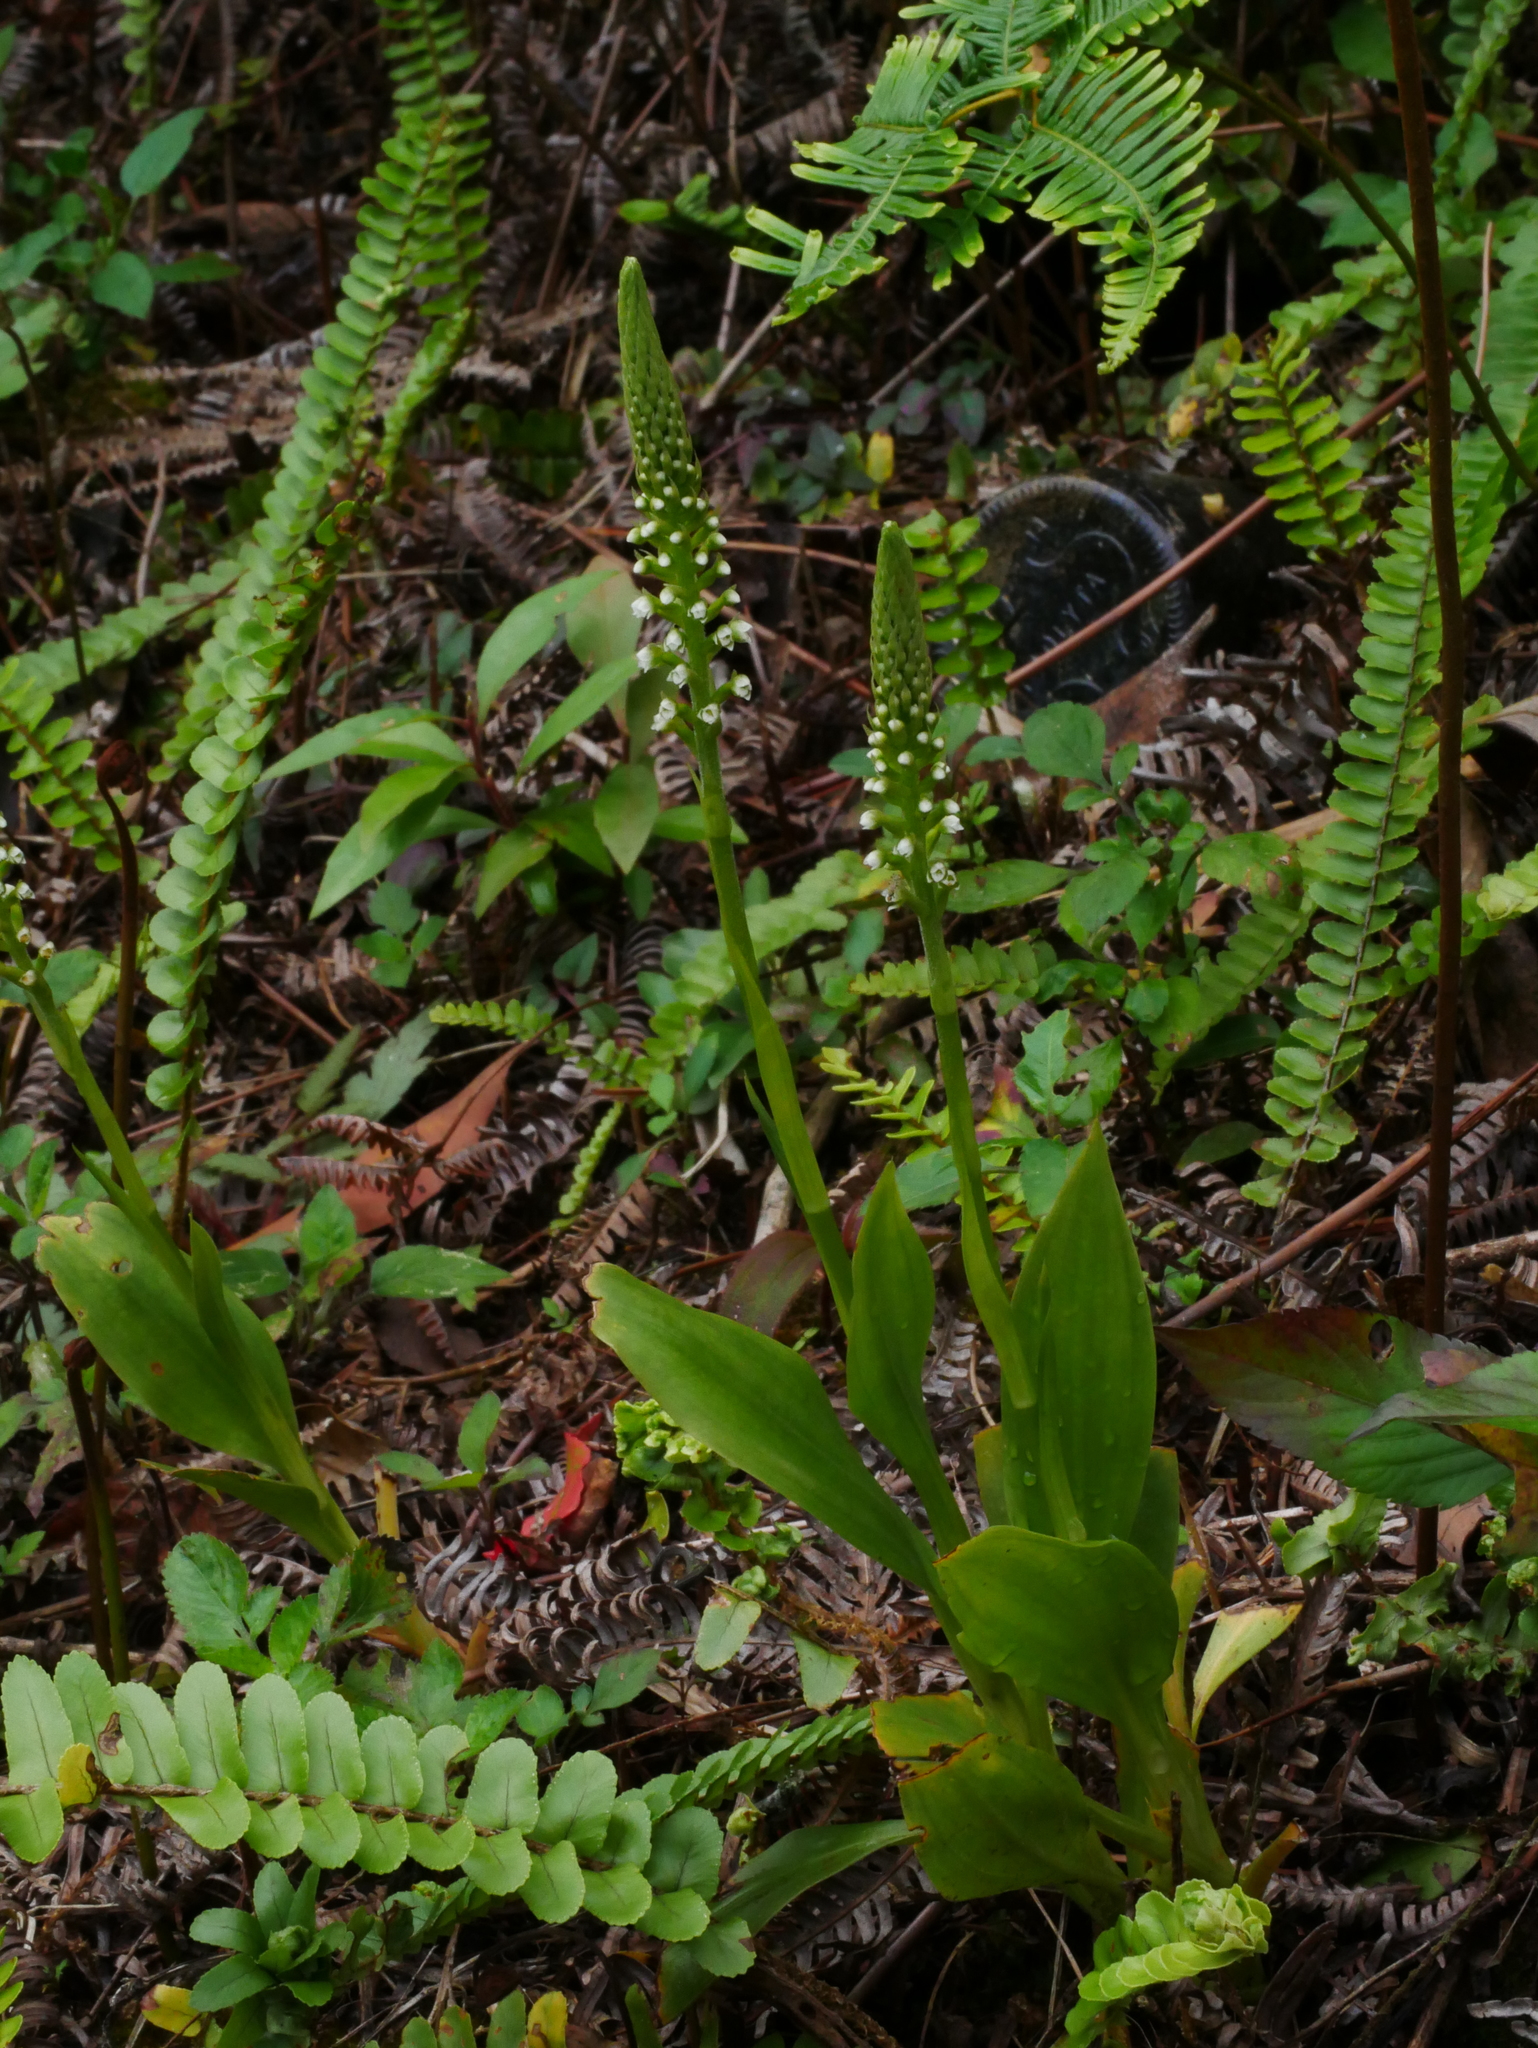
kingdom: Plantae
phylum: Tracheophyta
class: Liliopsida
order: Asparagales
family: Orchidaceae
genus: Goodyera
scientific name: Goodyera procera
